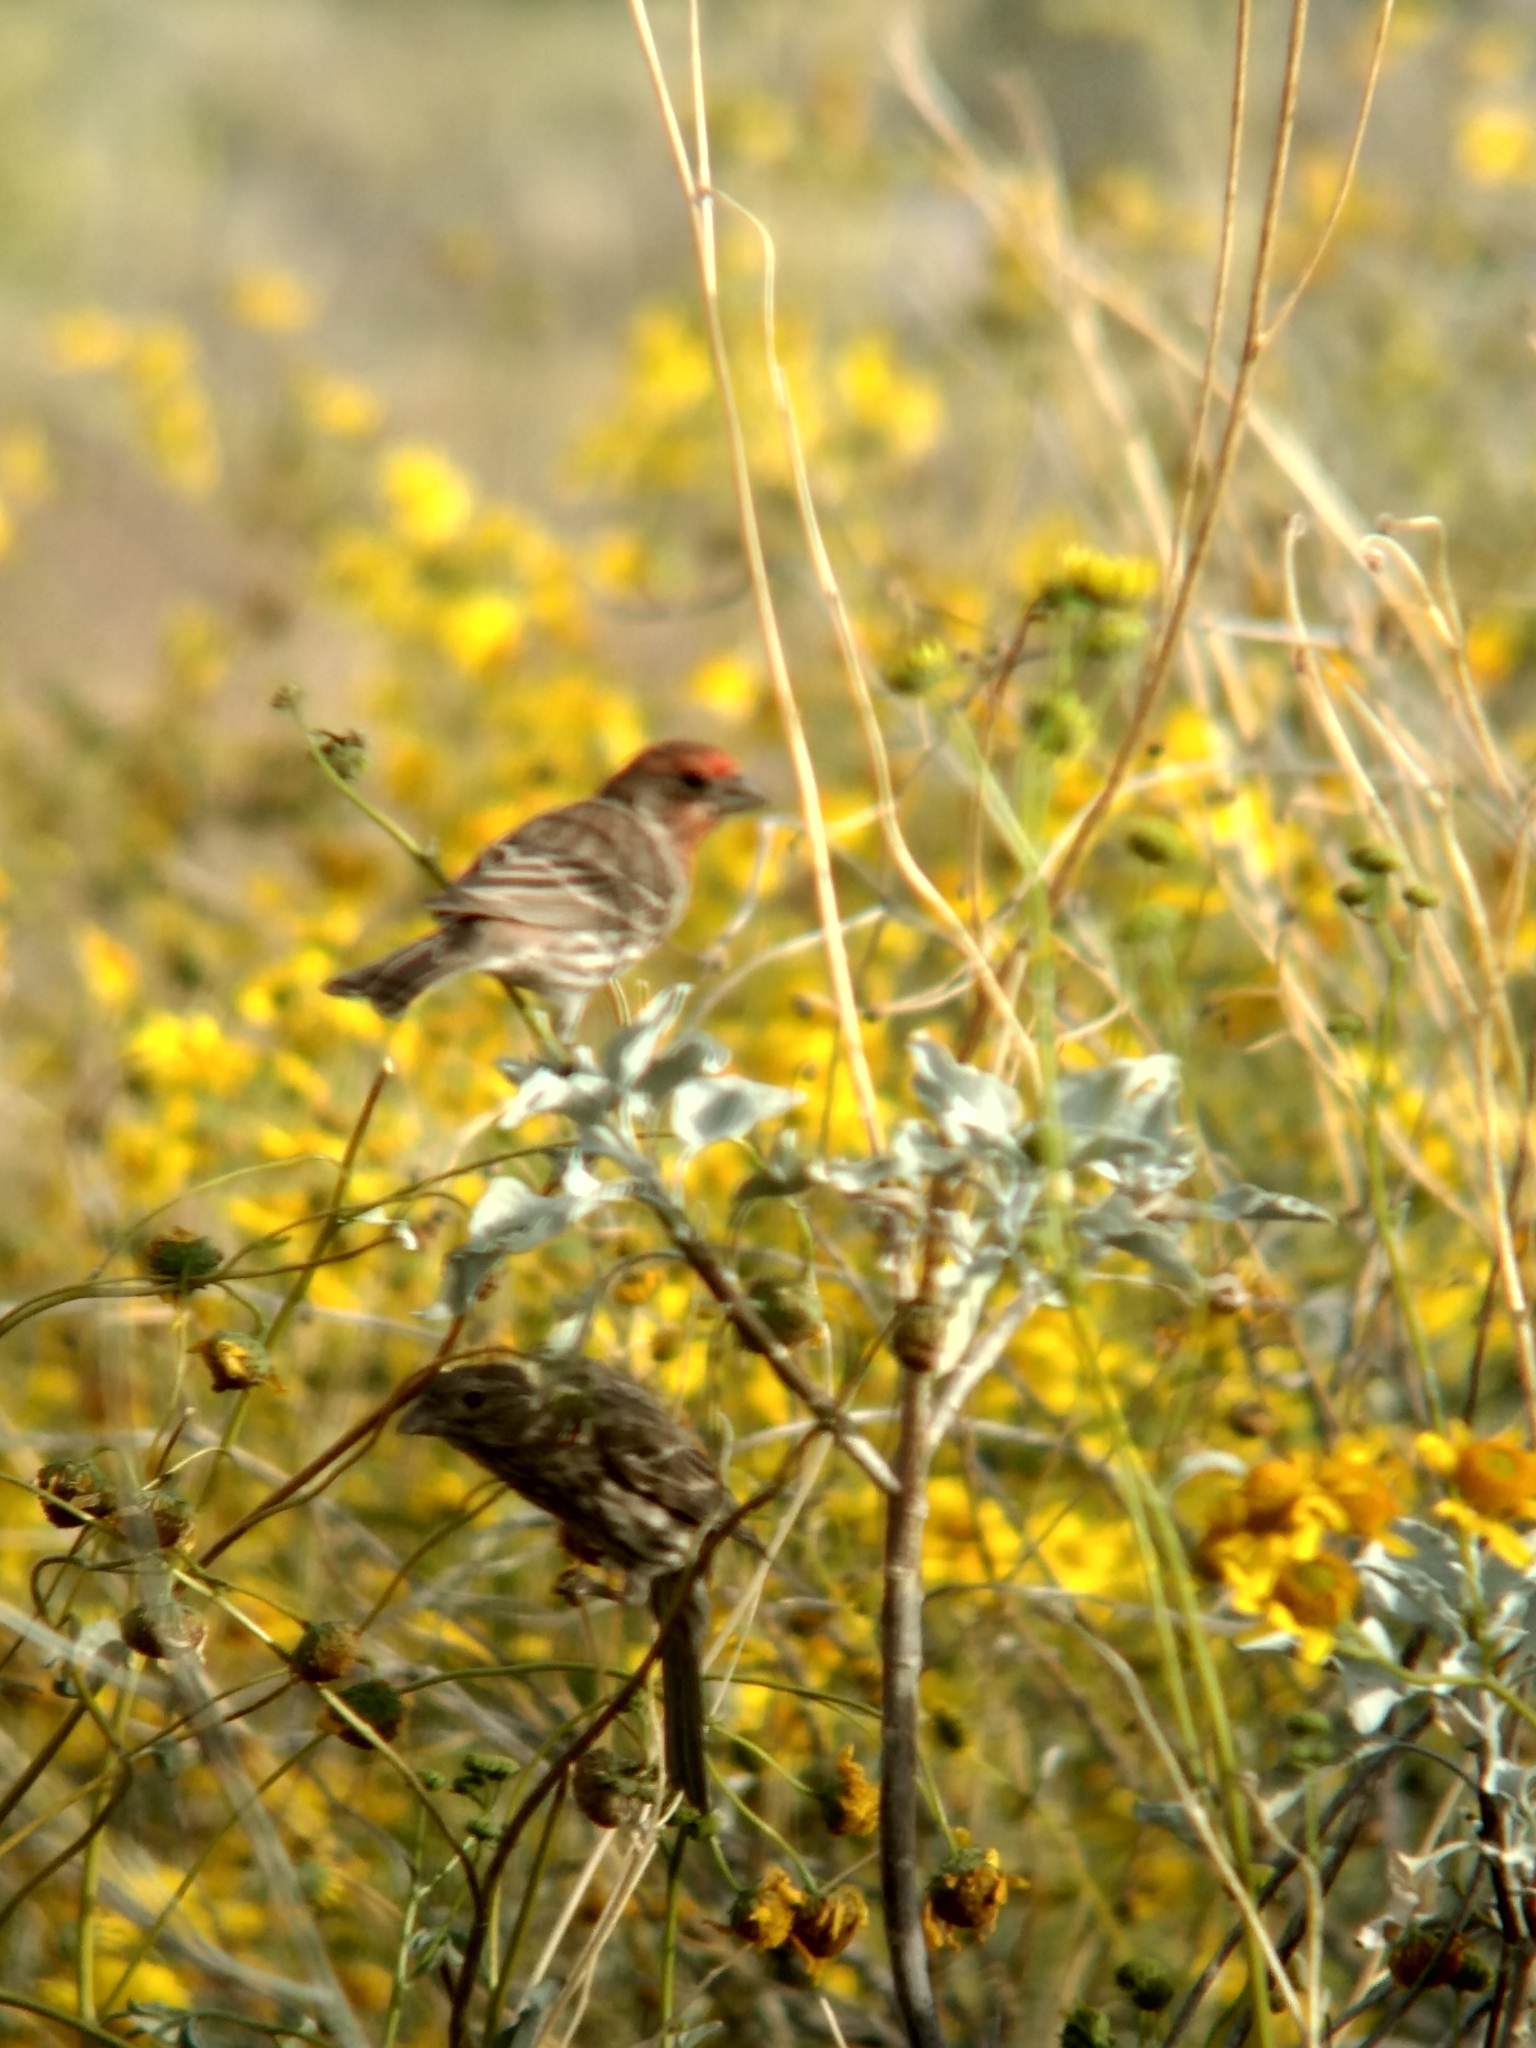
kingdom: Animalia
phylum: Chordata
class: Aves
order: Passeriformes
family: Fringillidae
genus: Haemorhous
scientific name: Haemorhous mexicanus
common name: House finch
